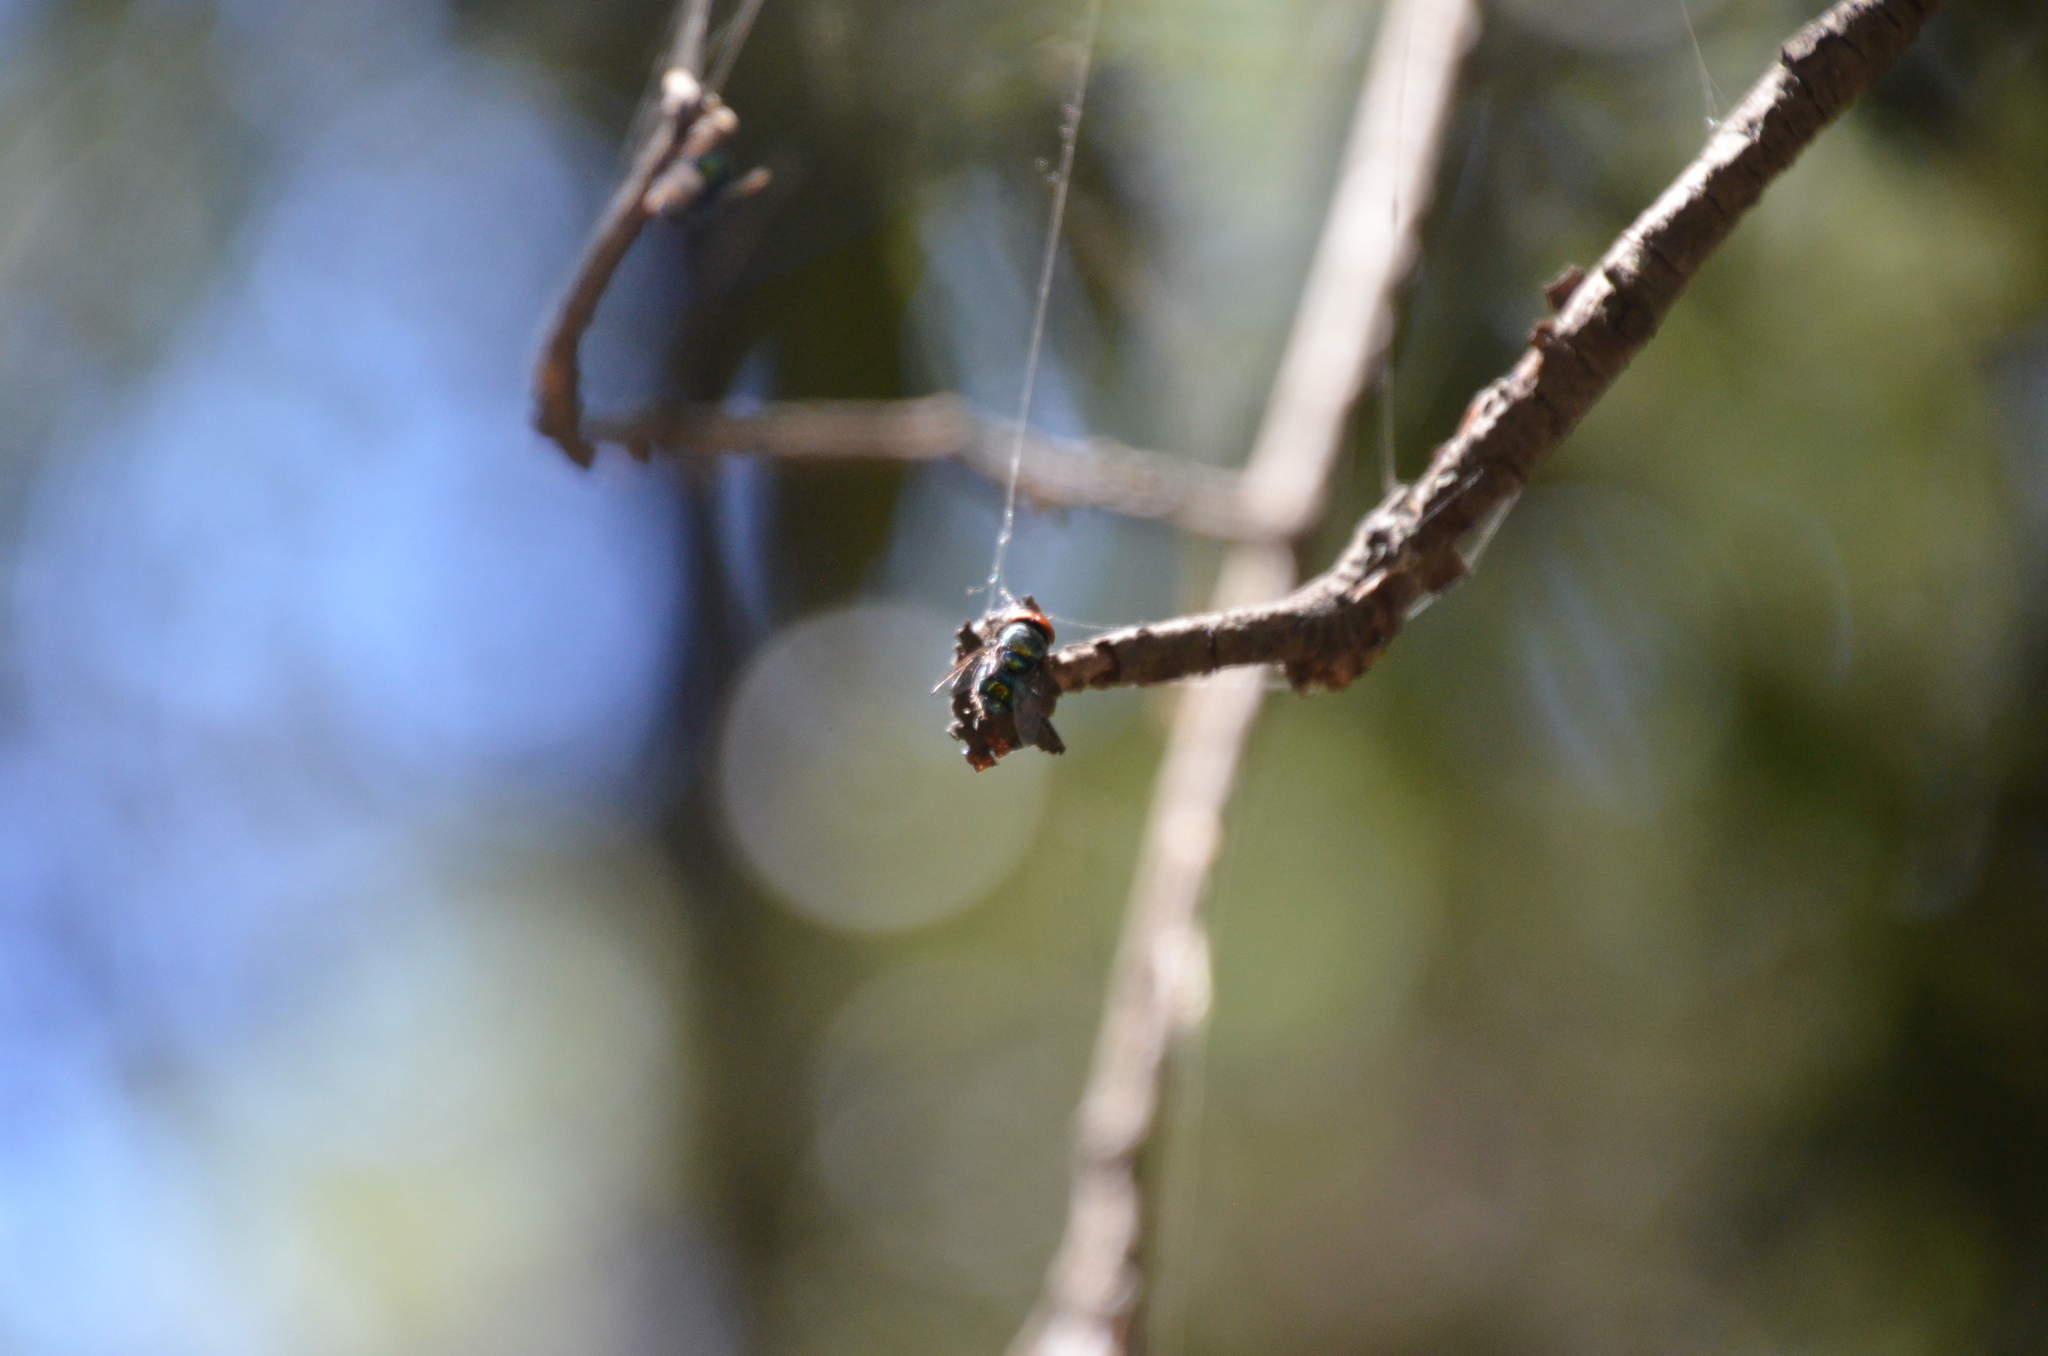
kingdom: Animalia
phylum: Arthropoda
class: Insecta
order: Diptera
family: Calliphoridae
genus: Chrysomya
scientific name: Chrysomya megacephala
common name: Blow fly
